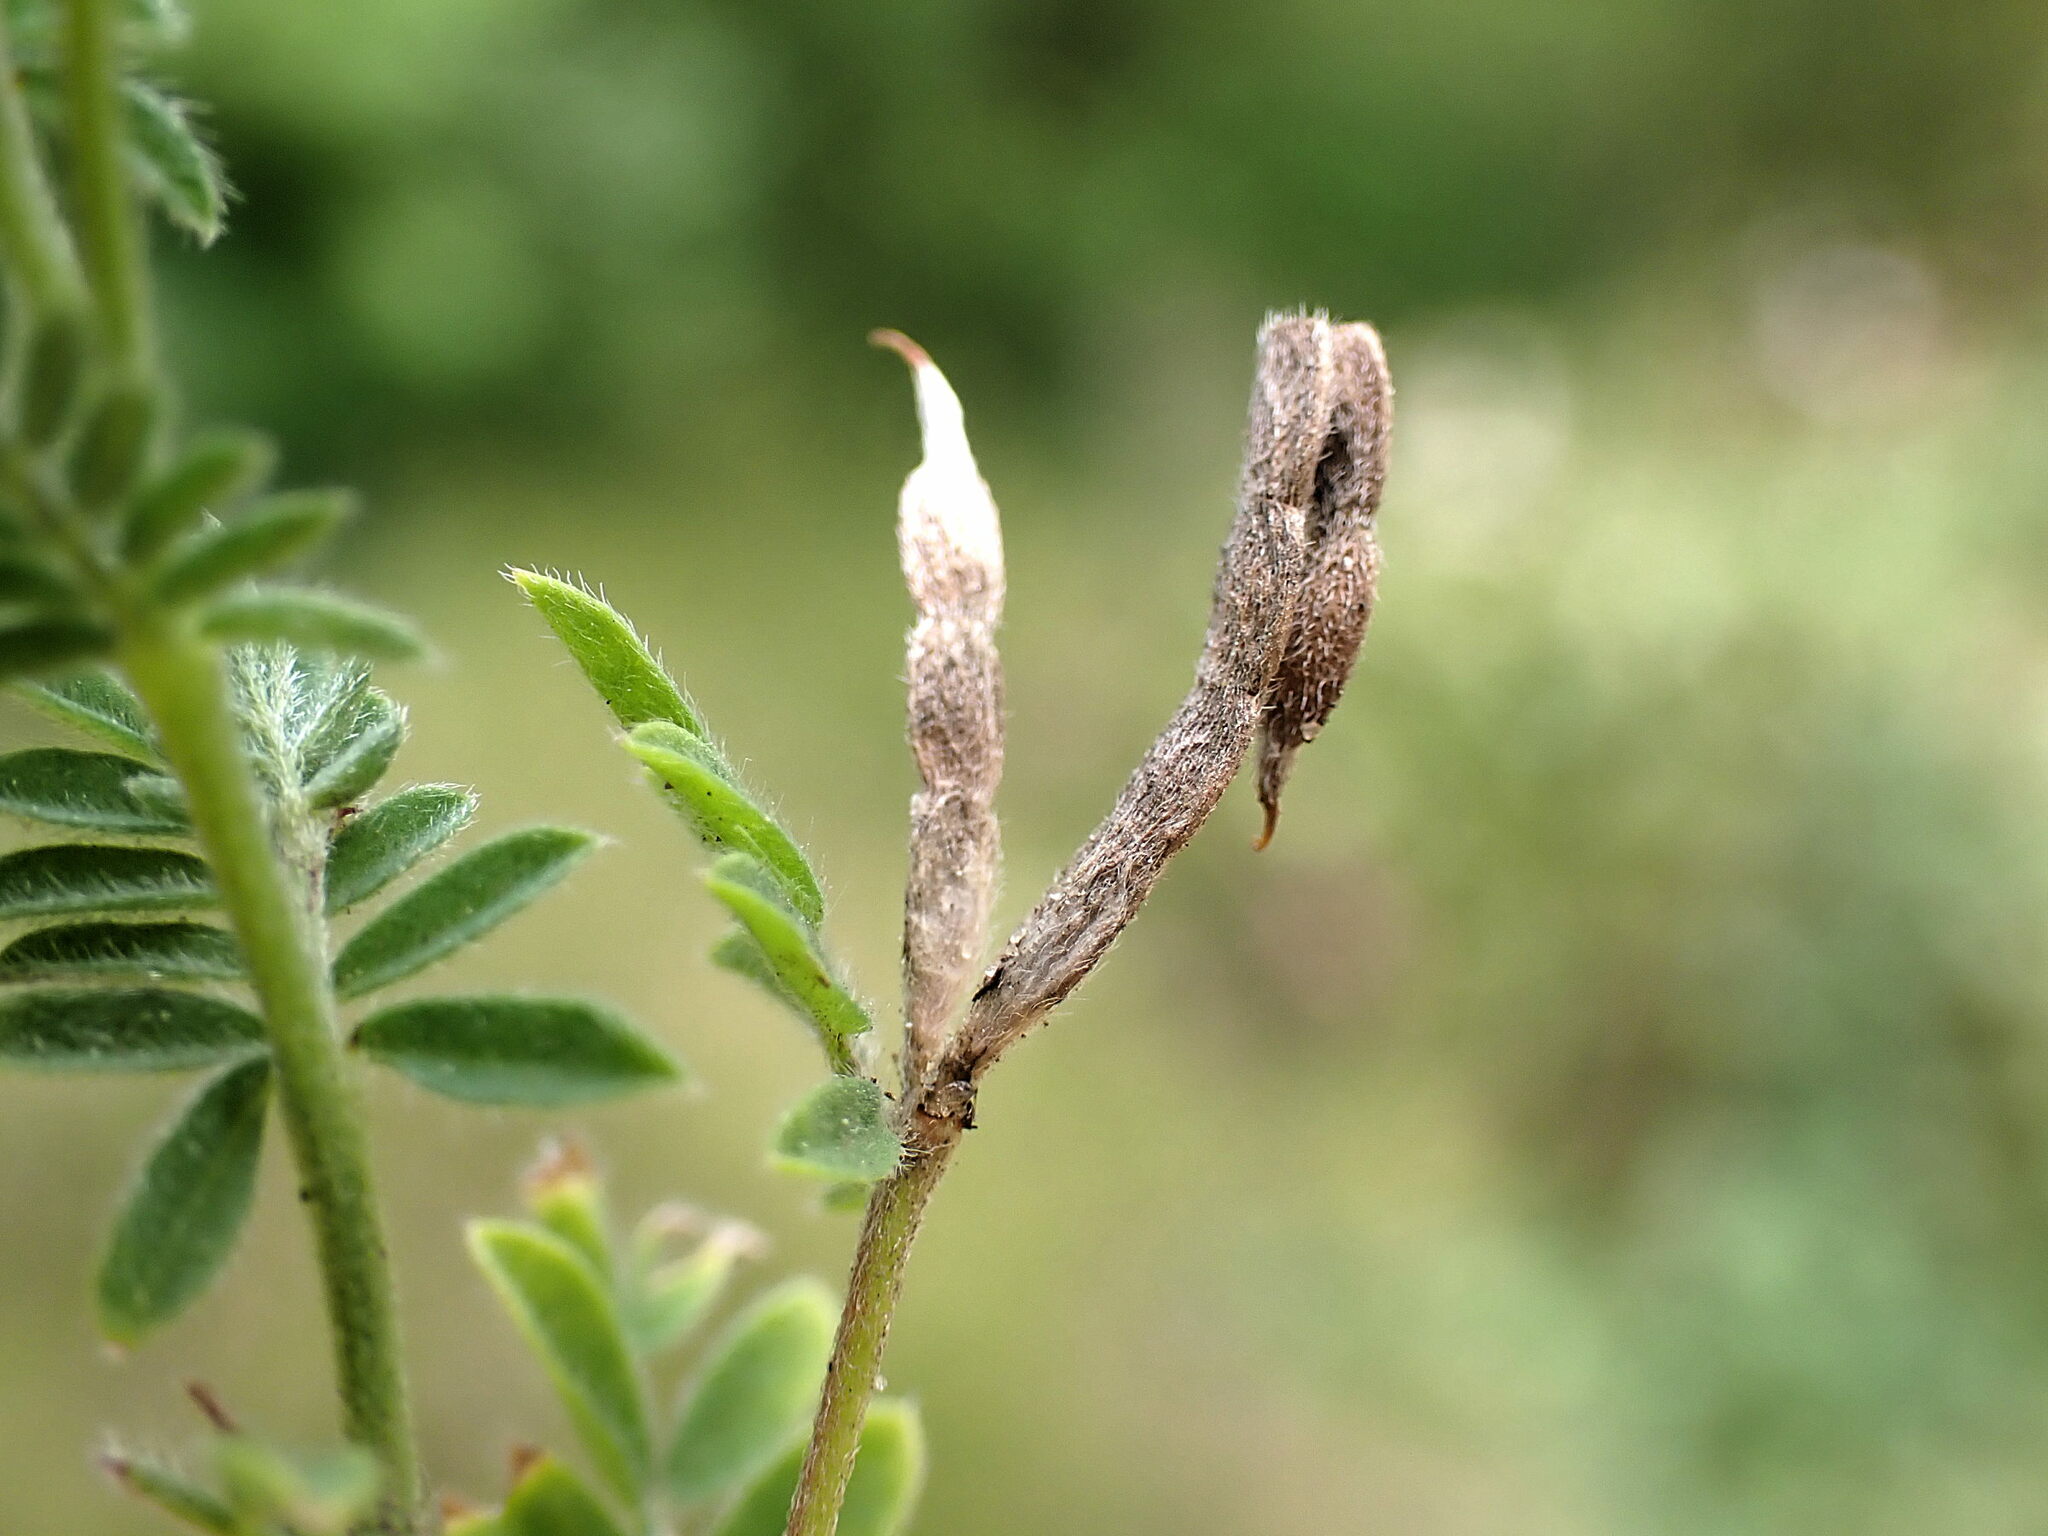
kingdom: Plantae
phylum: Tracheophyta
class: Magnoliopsida
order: Fabales
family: Fabaceae
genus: Ornithopus
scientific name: Ornithopus perpusillus
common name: Bird's-foot
